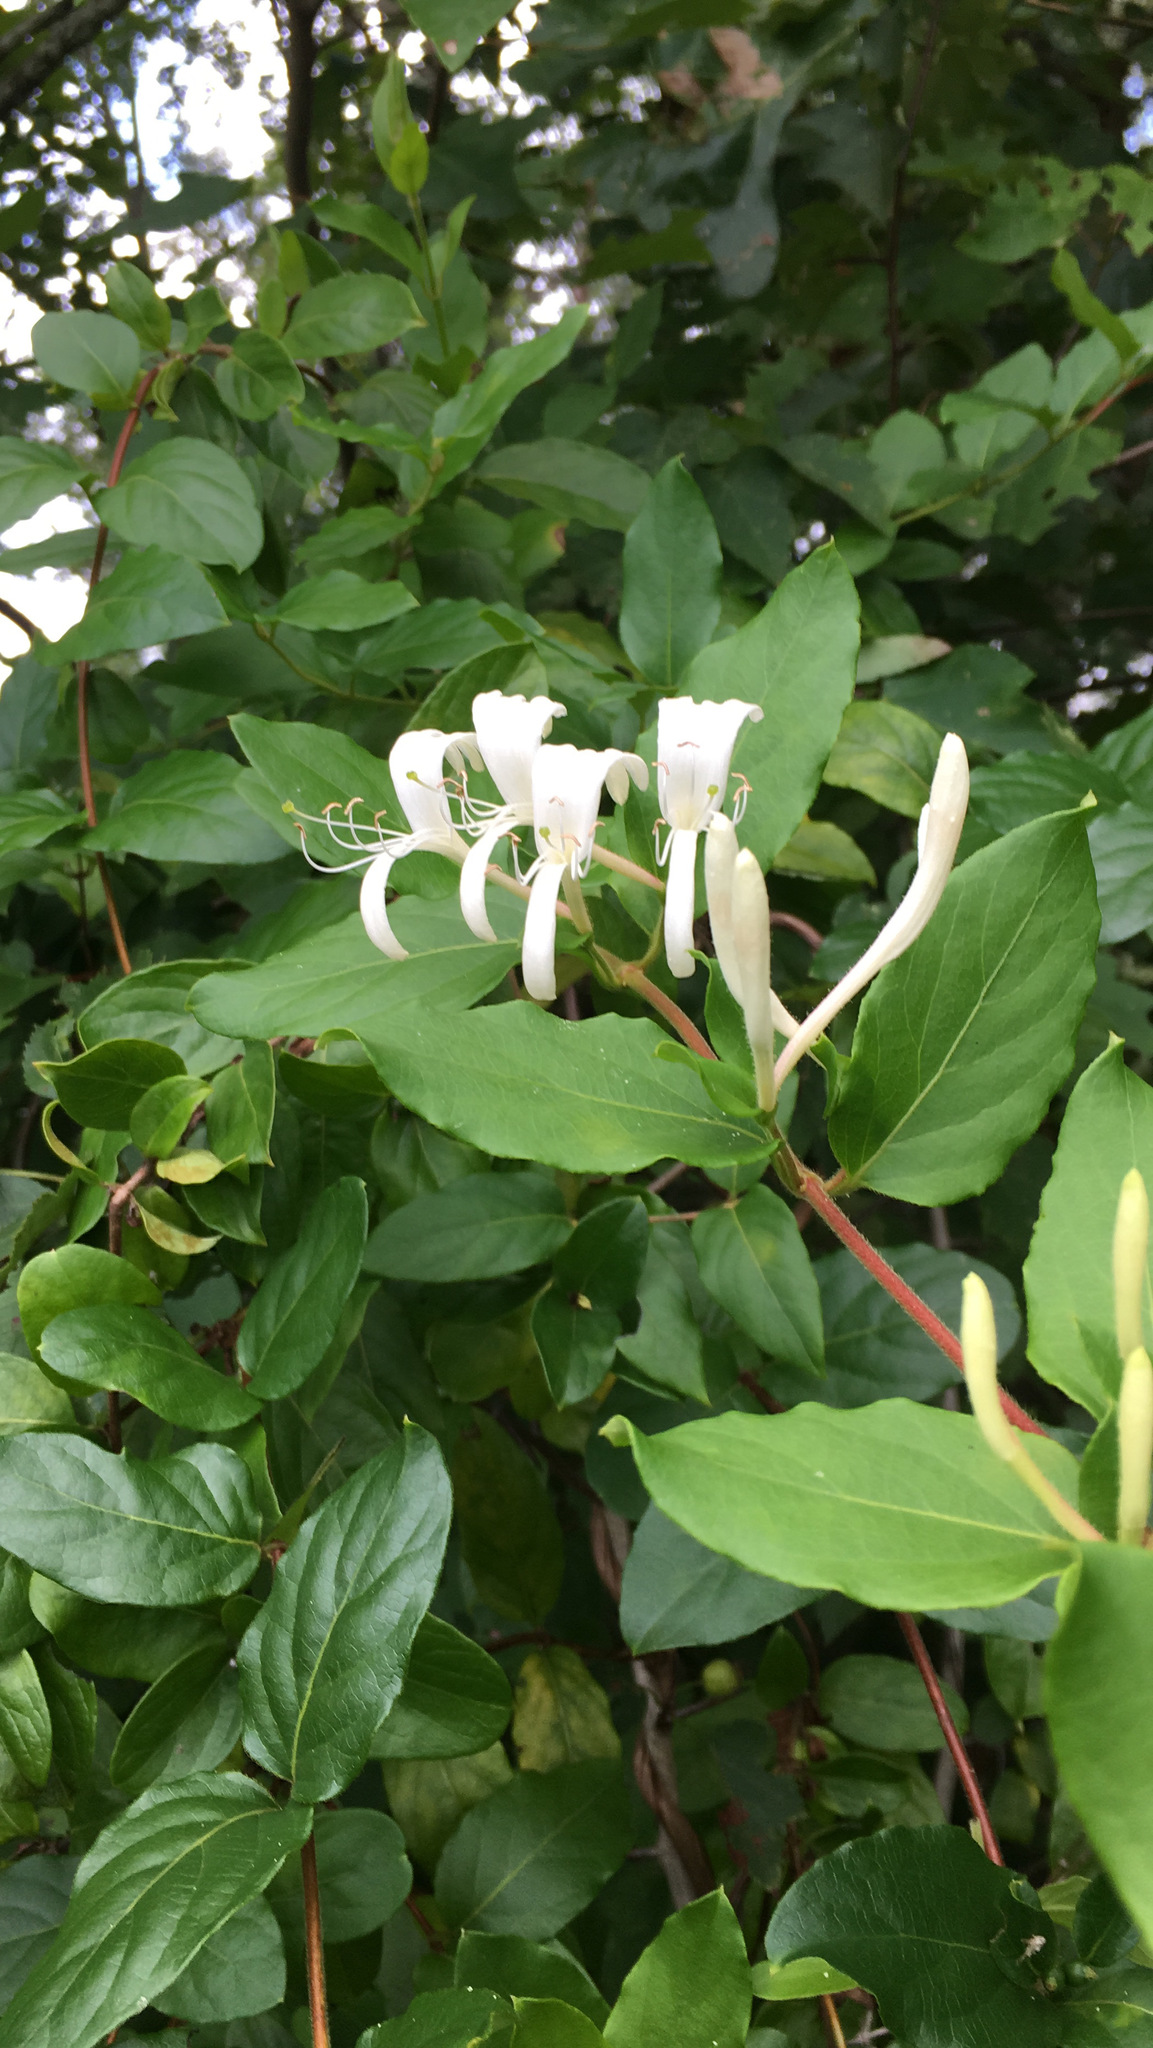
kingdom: Plantae
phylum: Tracheophyta
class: Magnoliopsida
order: Dipsacales
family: Caprifoliaceae
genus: Lonicera
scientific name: Lonicera japonica
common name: Japanese honeysuckle
